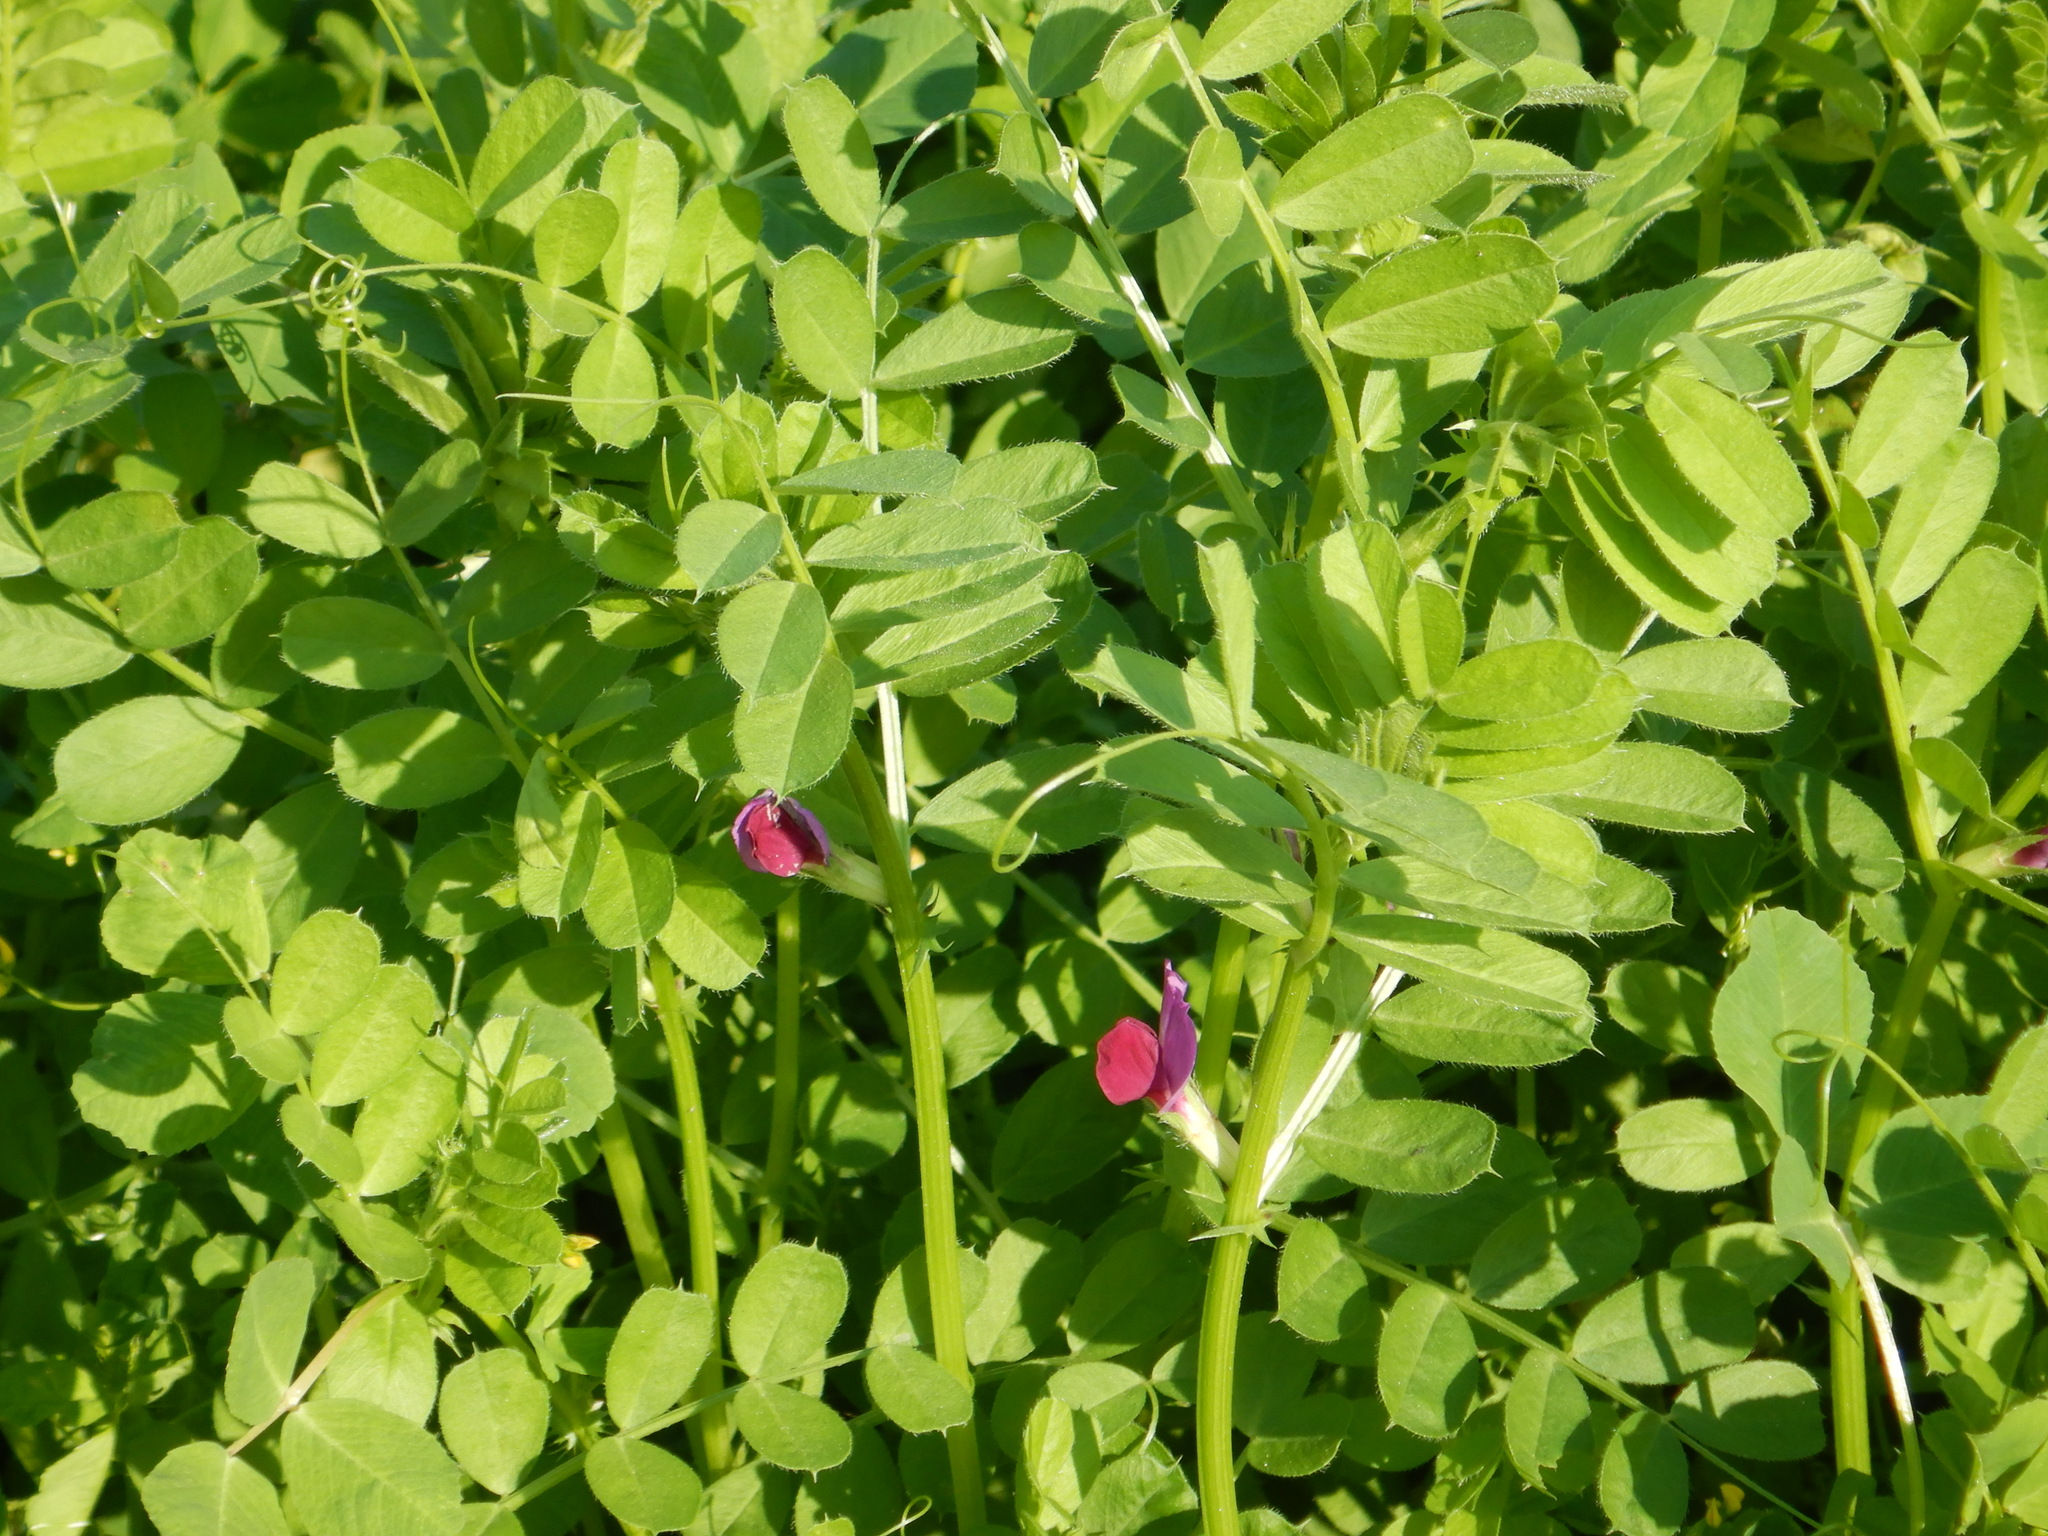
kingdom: Plantae
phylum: Tracheophyta
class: Magnoliopsida
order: Fabales
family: Fabaceae
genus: Vicia
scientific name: Vicia sativa
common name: Garden vetch
